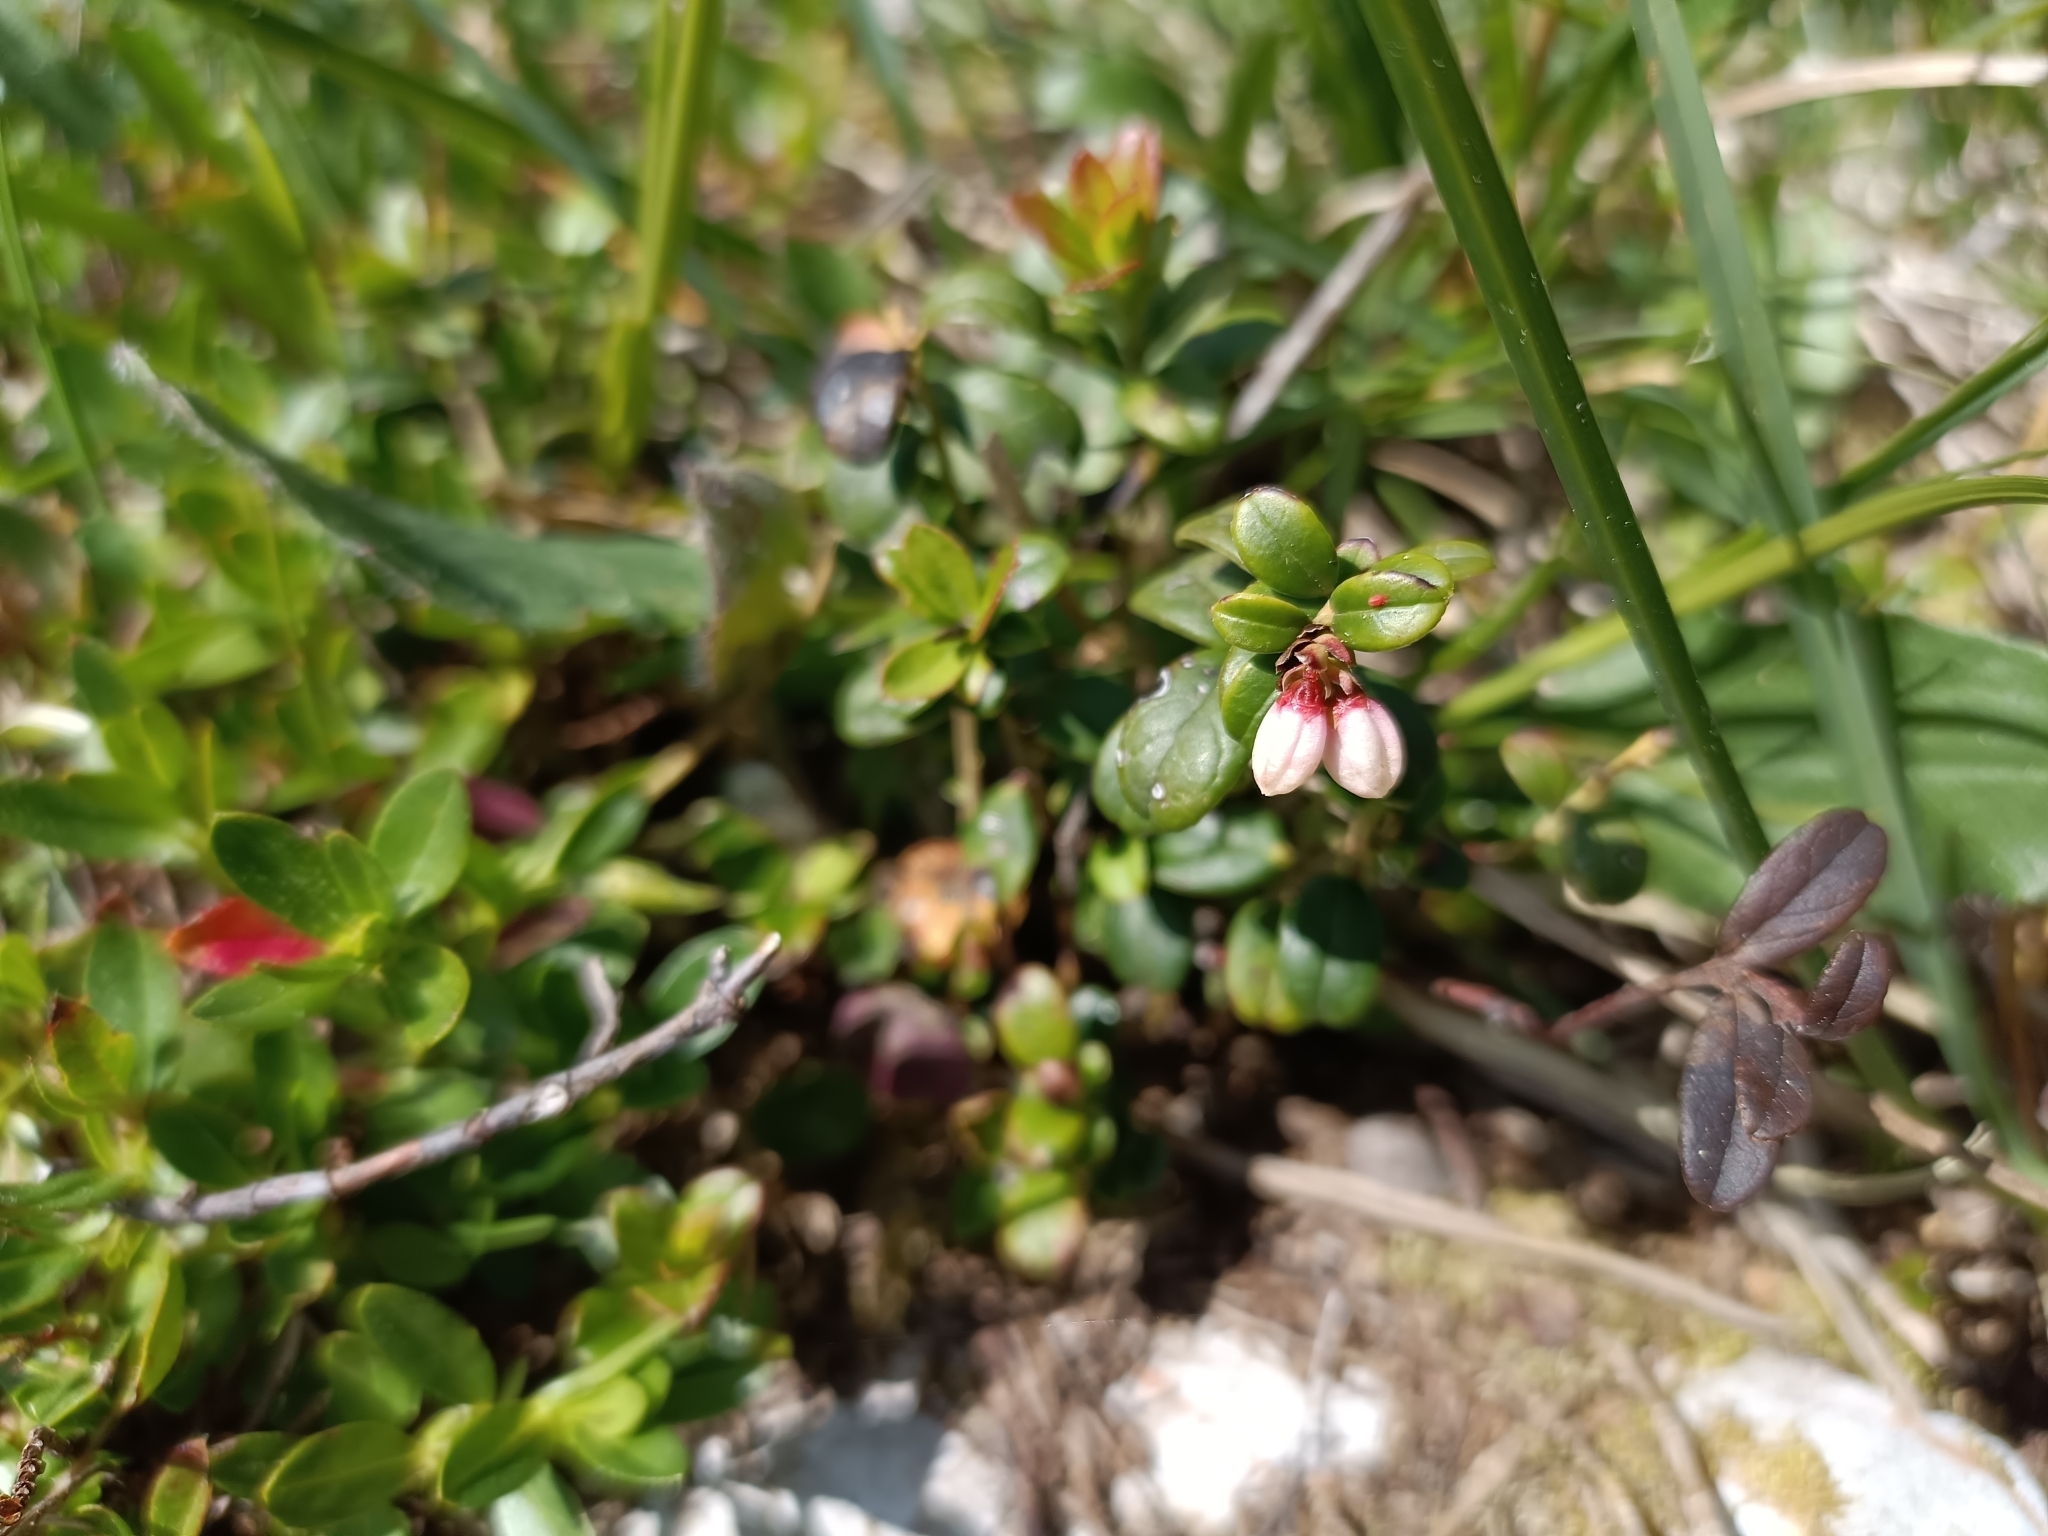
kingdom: Plantae
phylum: Tracheophyta
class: Magnoliopsida
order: Ericales
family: Ericaceae
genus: Vaccinium
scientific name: Vaccinium vitis-idaea
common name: Cowberry
